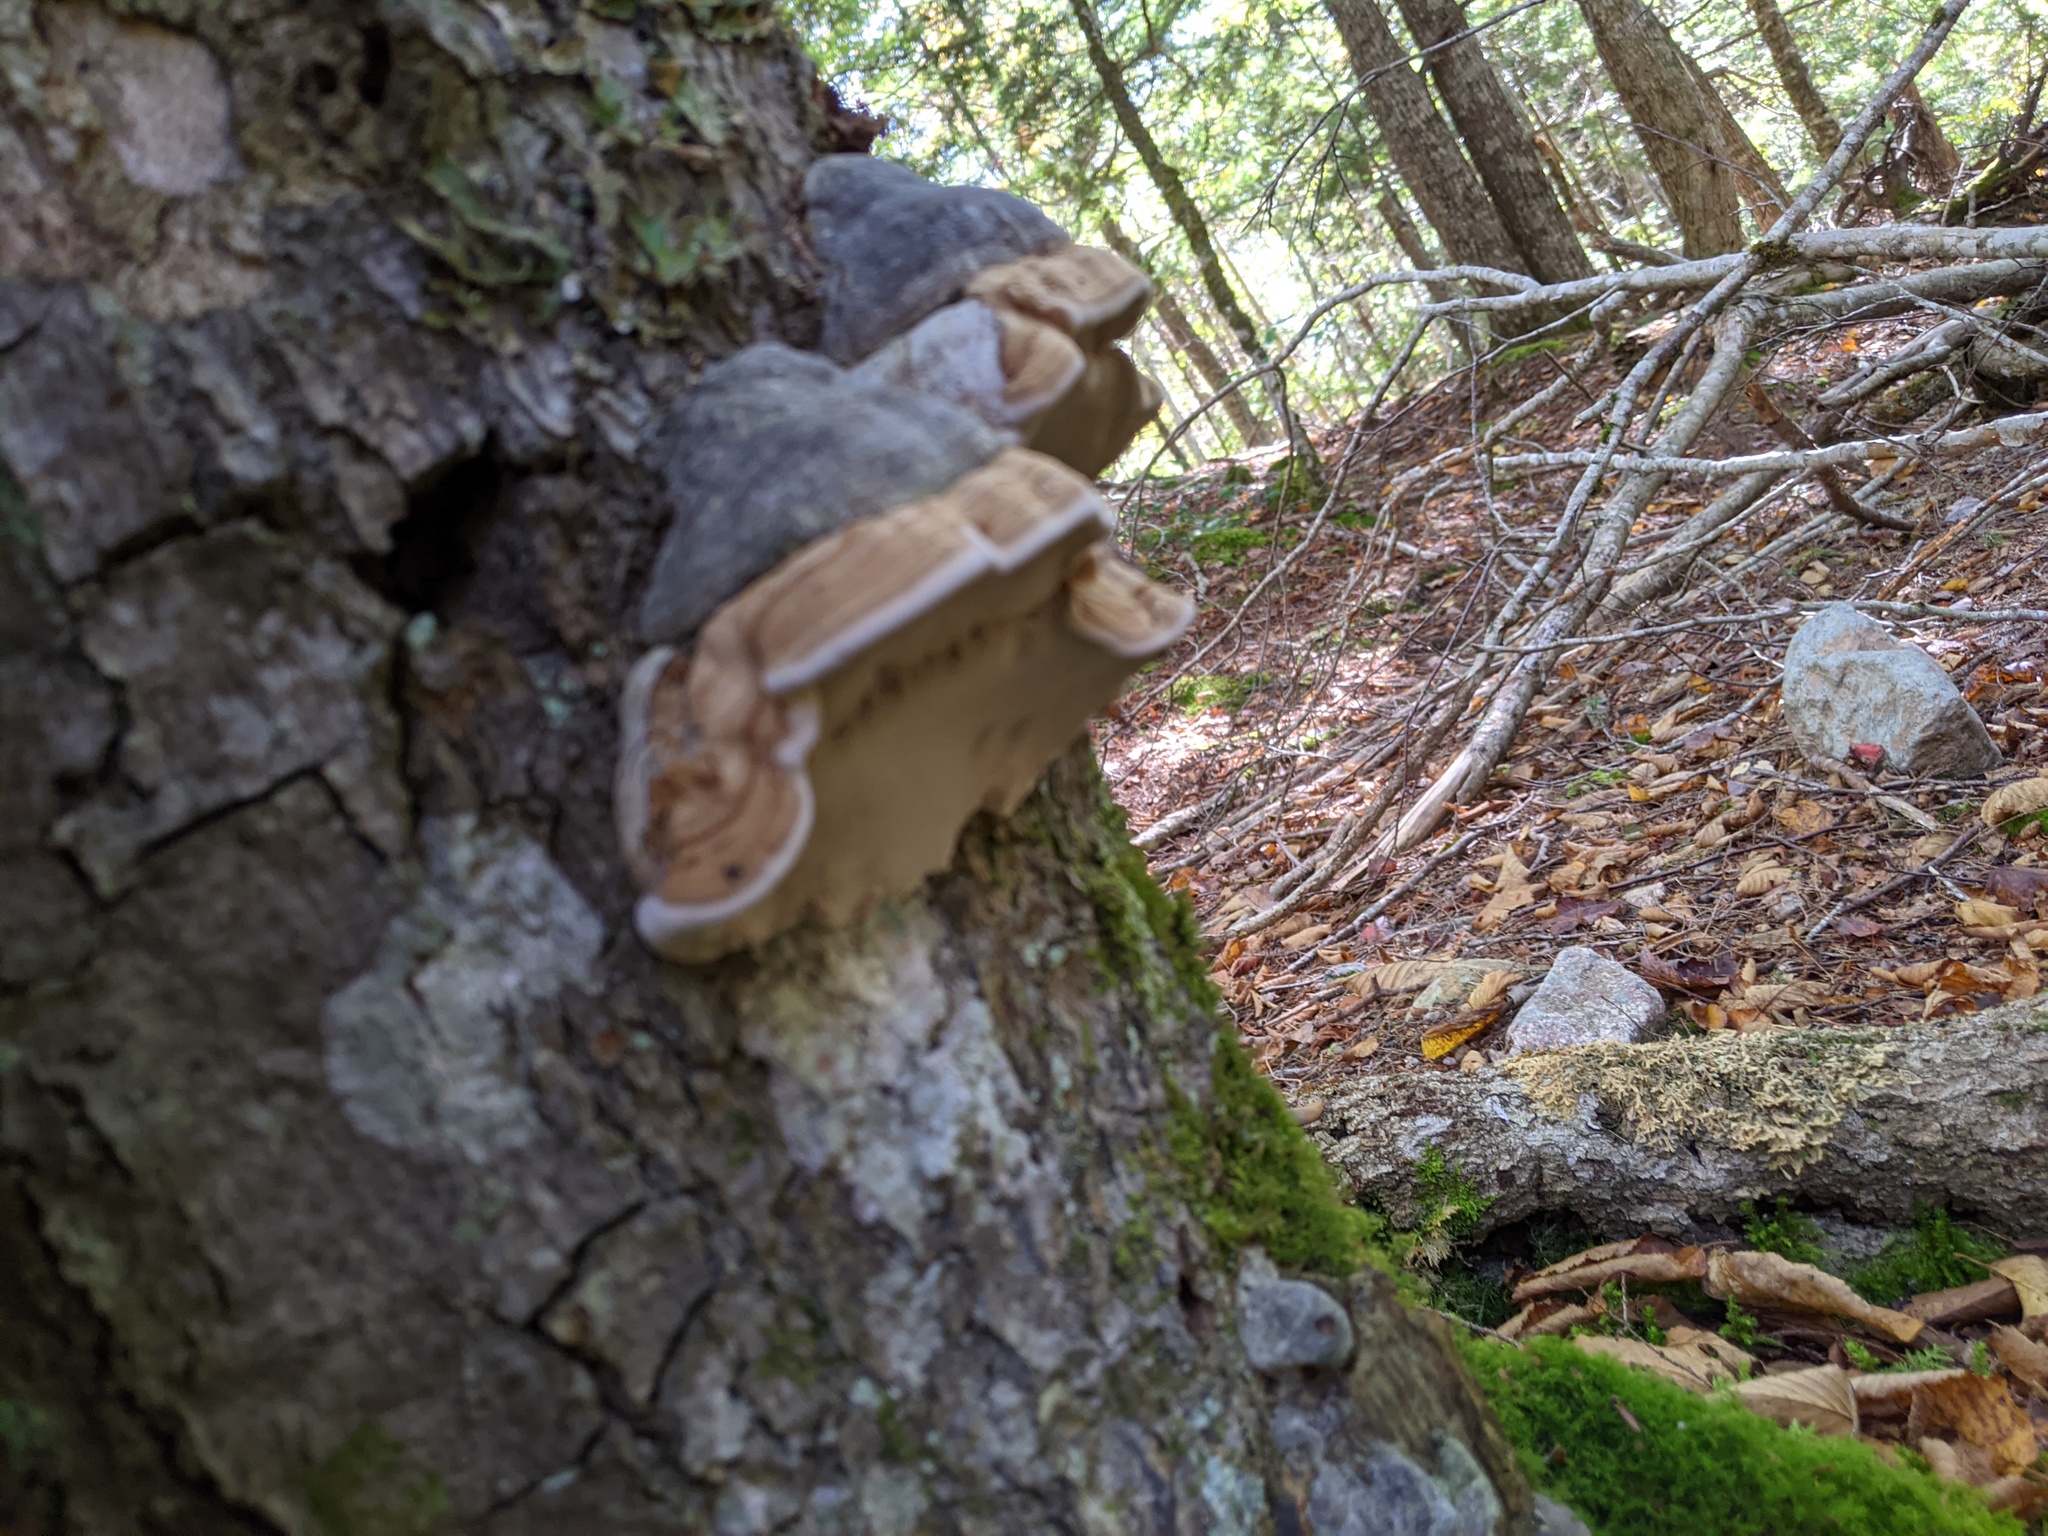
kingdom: Fungi
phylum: Basidiomycota
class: Agaricomycetes
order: Polyporales
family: Polyporaceae
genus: Fomes
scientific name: Fomes fomentarius
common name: Hoof fungus
